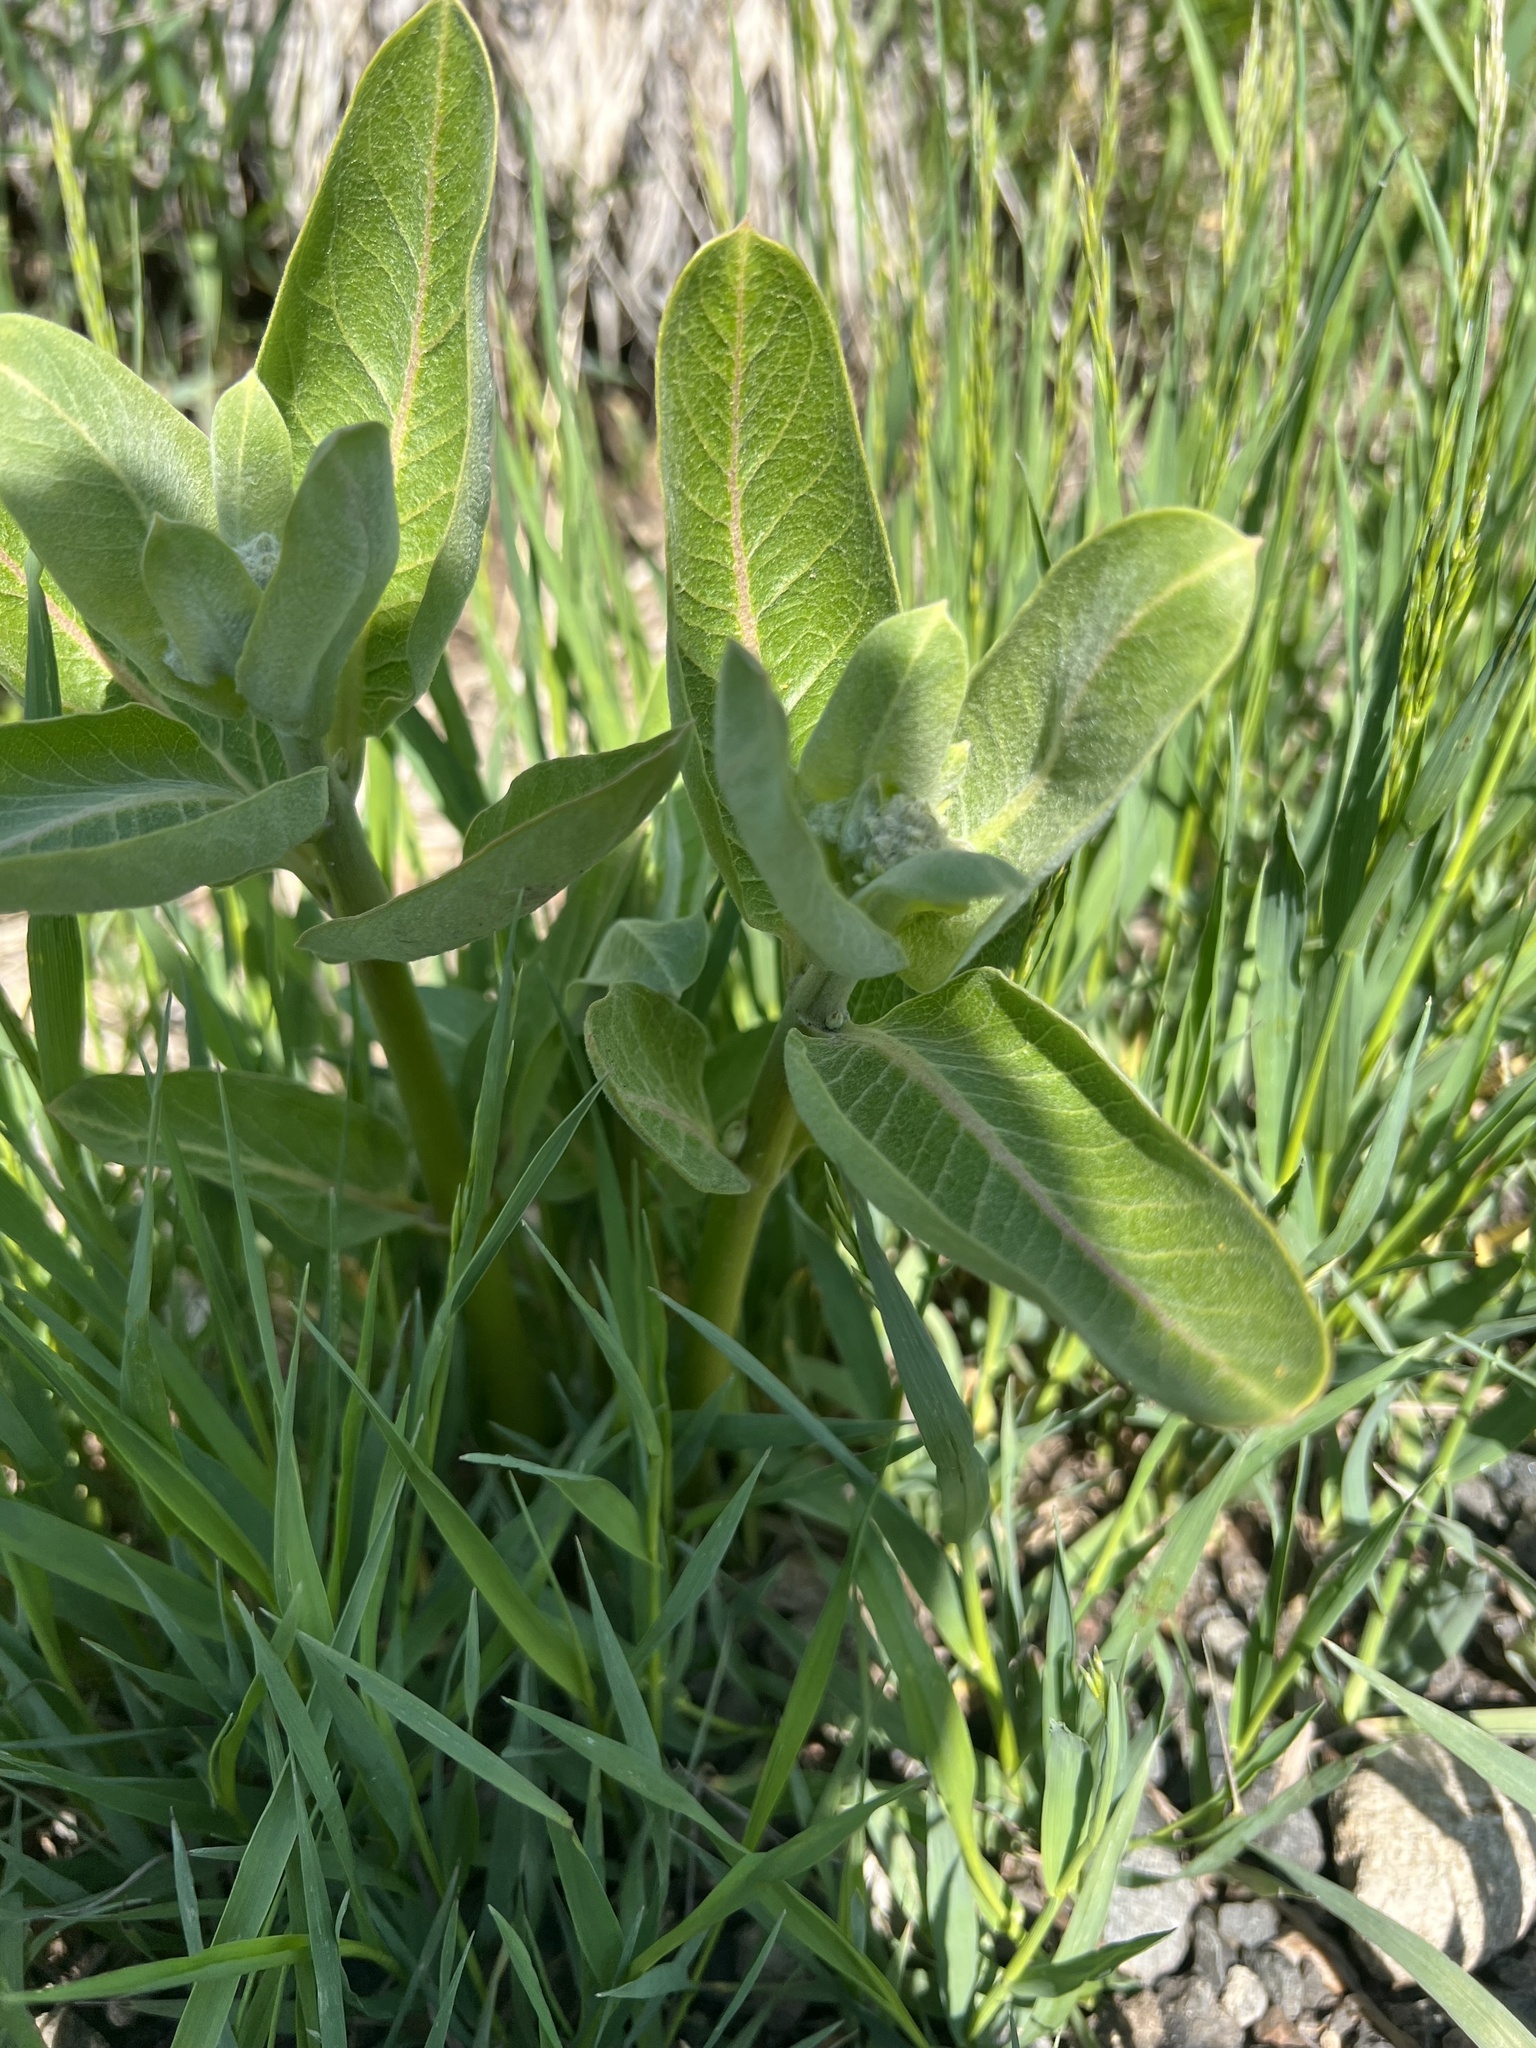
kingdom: Plantae
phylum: Tracheophyta
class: Magnoliopsida
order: Gentianales
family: Apocynaceae
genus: Asclepias
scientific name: Asclepias speciosa
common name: Showy milkweed
